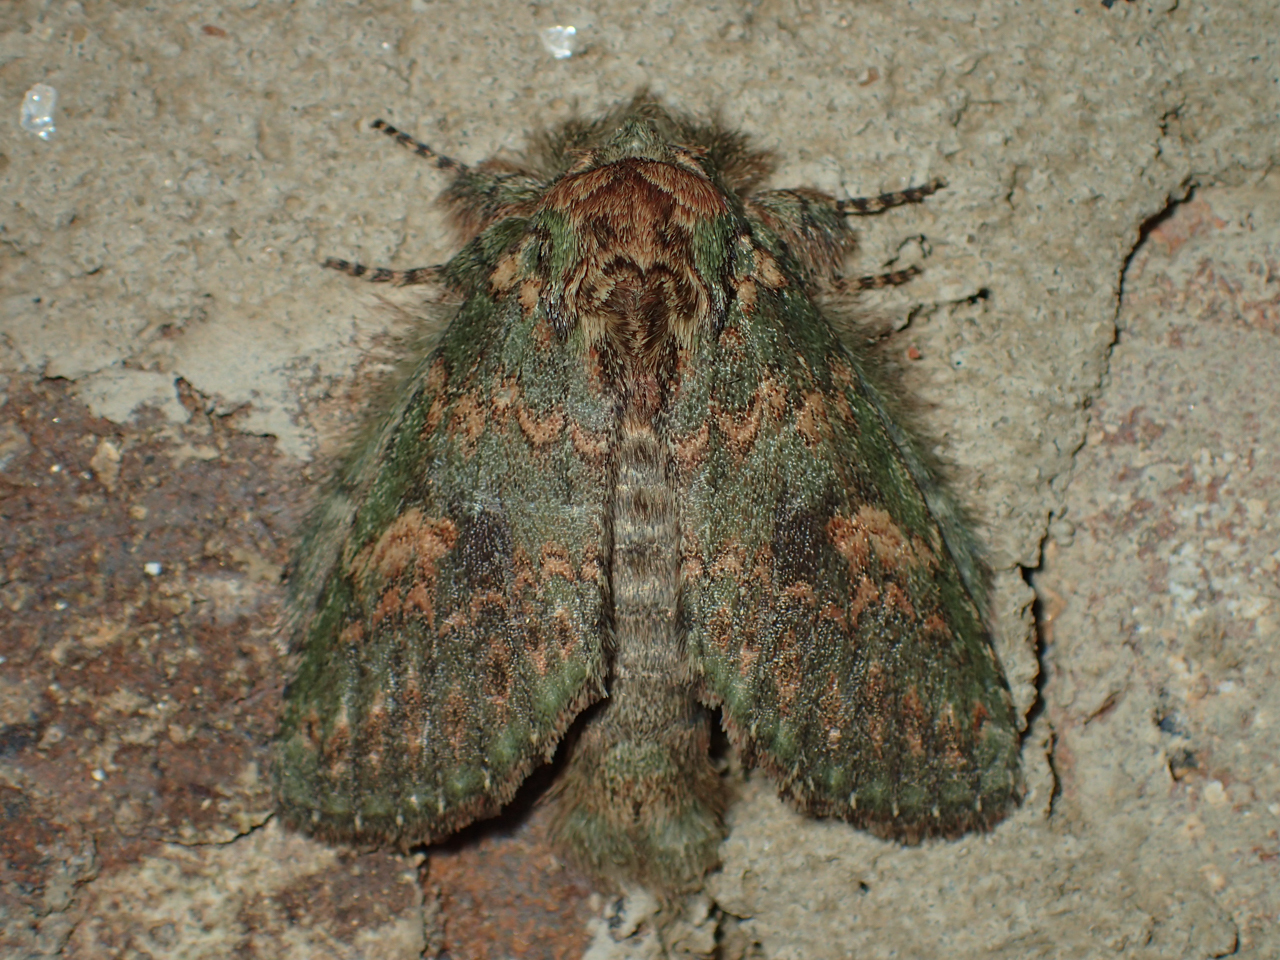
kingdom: Animalia
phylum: Arthropoda
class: Insecta
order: Lepidoptera
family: Notodontidae
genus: Disphragis
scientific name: Disphragis Cecrita biundata
